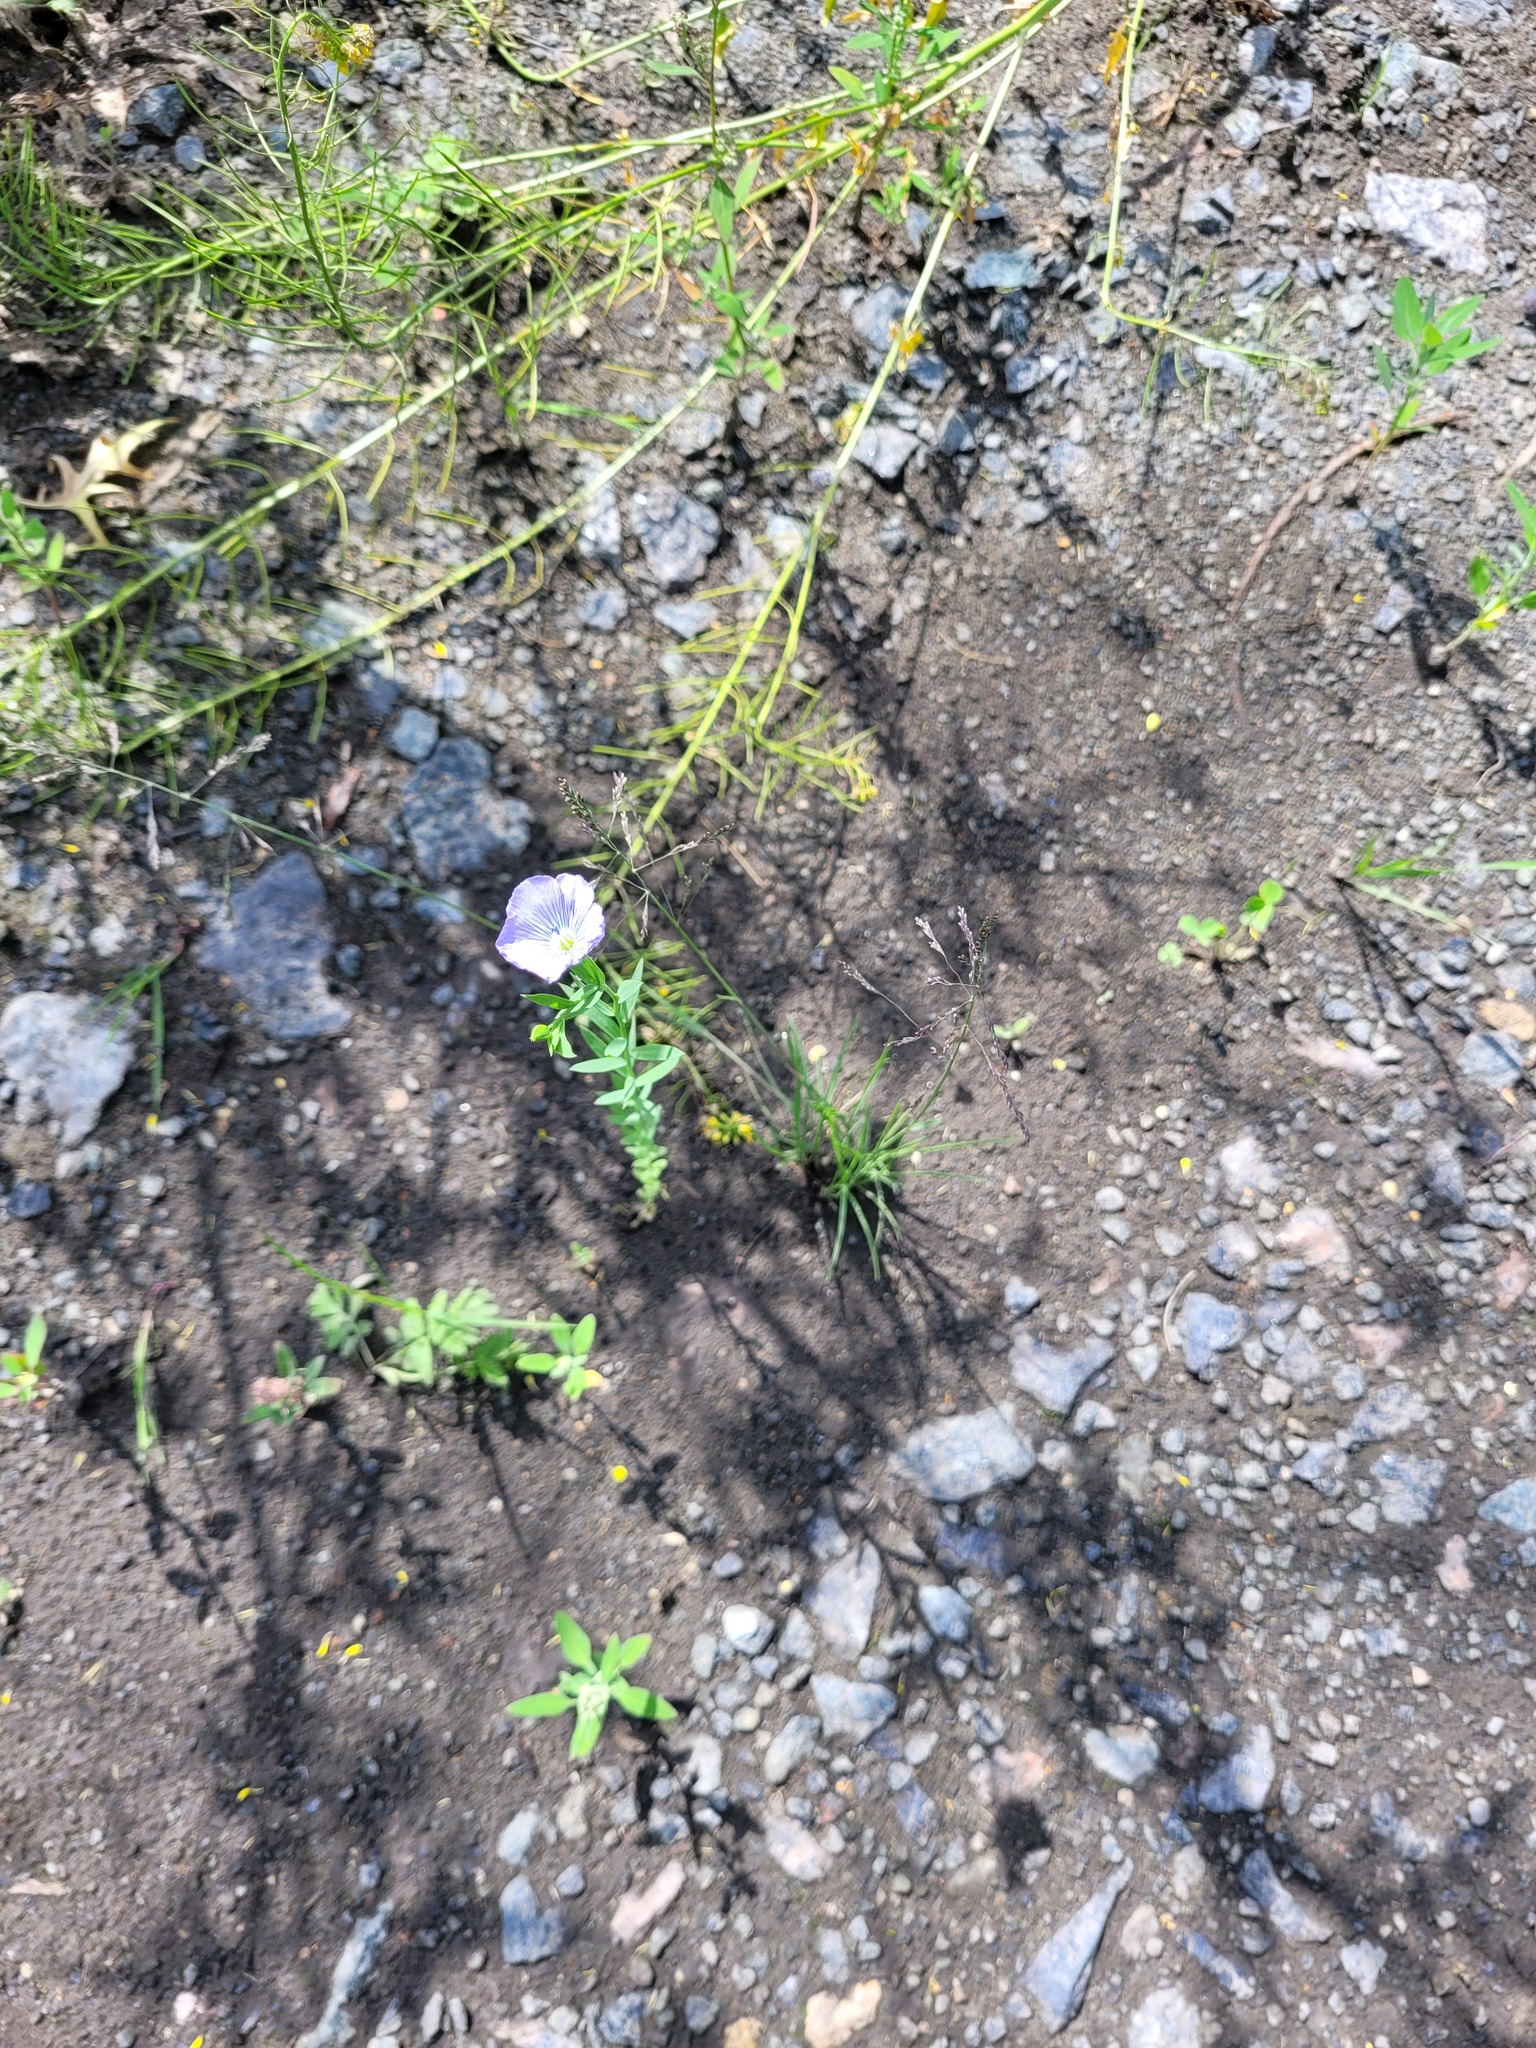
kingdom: Plantae
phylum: Tracheophyta
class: Magnoliopsida
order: Malpighiales
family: Linaceae
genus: Linum
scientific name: Linum usitatissimum
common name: Flax
